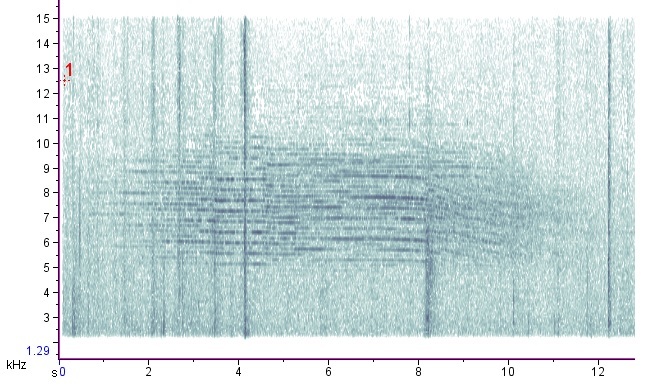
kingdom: Animalia
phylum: Arthropoda
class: Insecta
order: Hemiptera
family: Cicadidae
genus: Neotibicen
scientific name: Neotibicen canicularis
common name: God-day cicada
